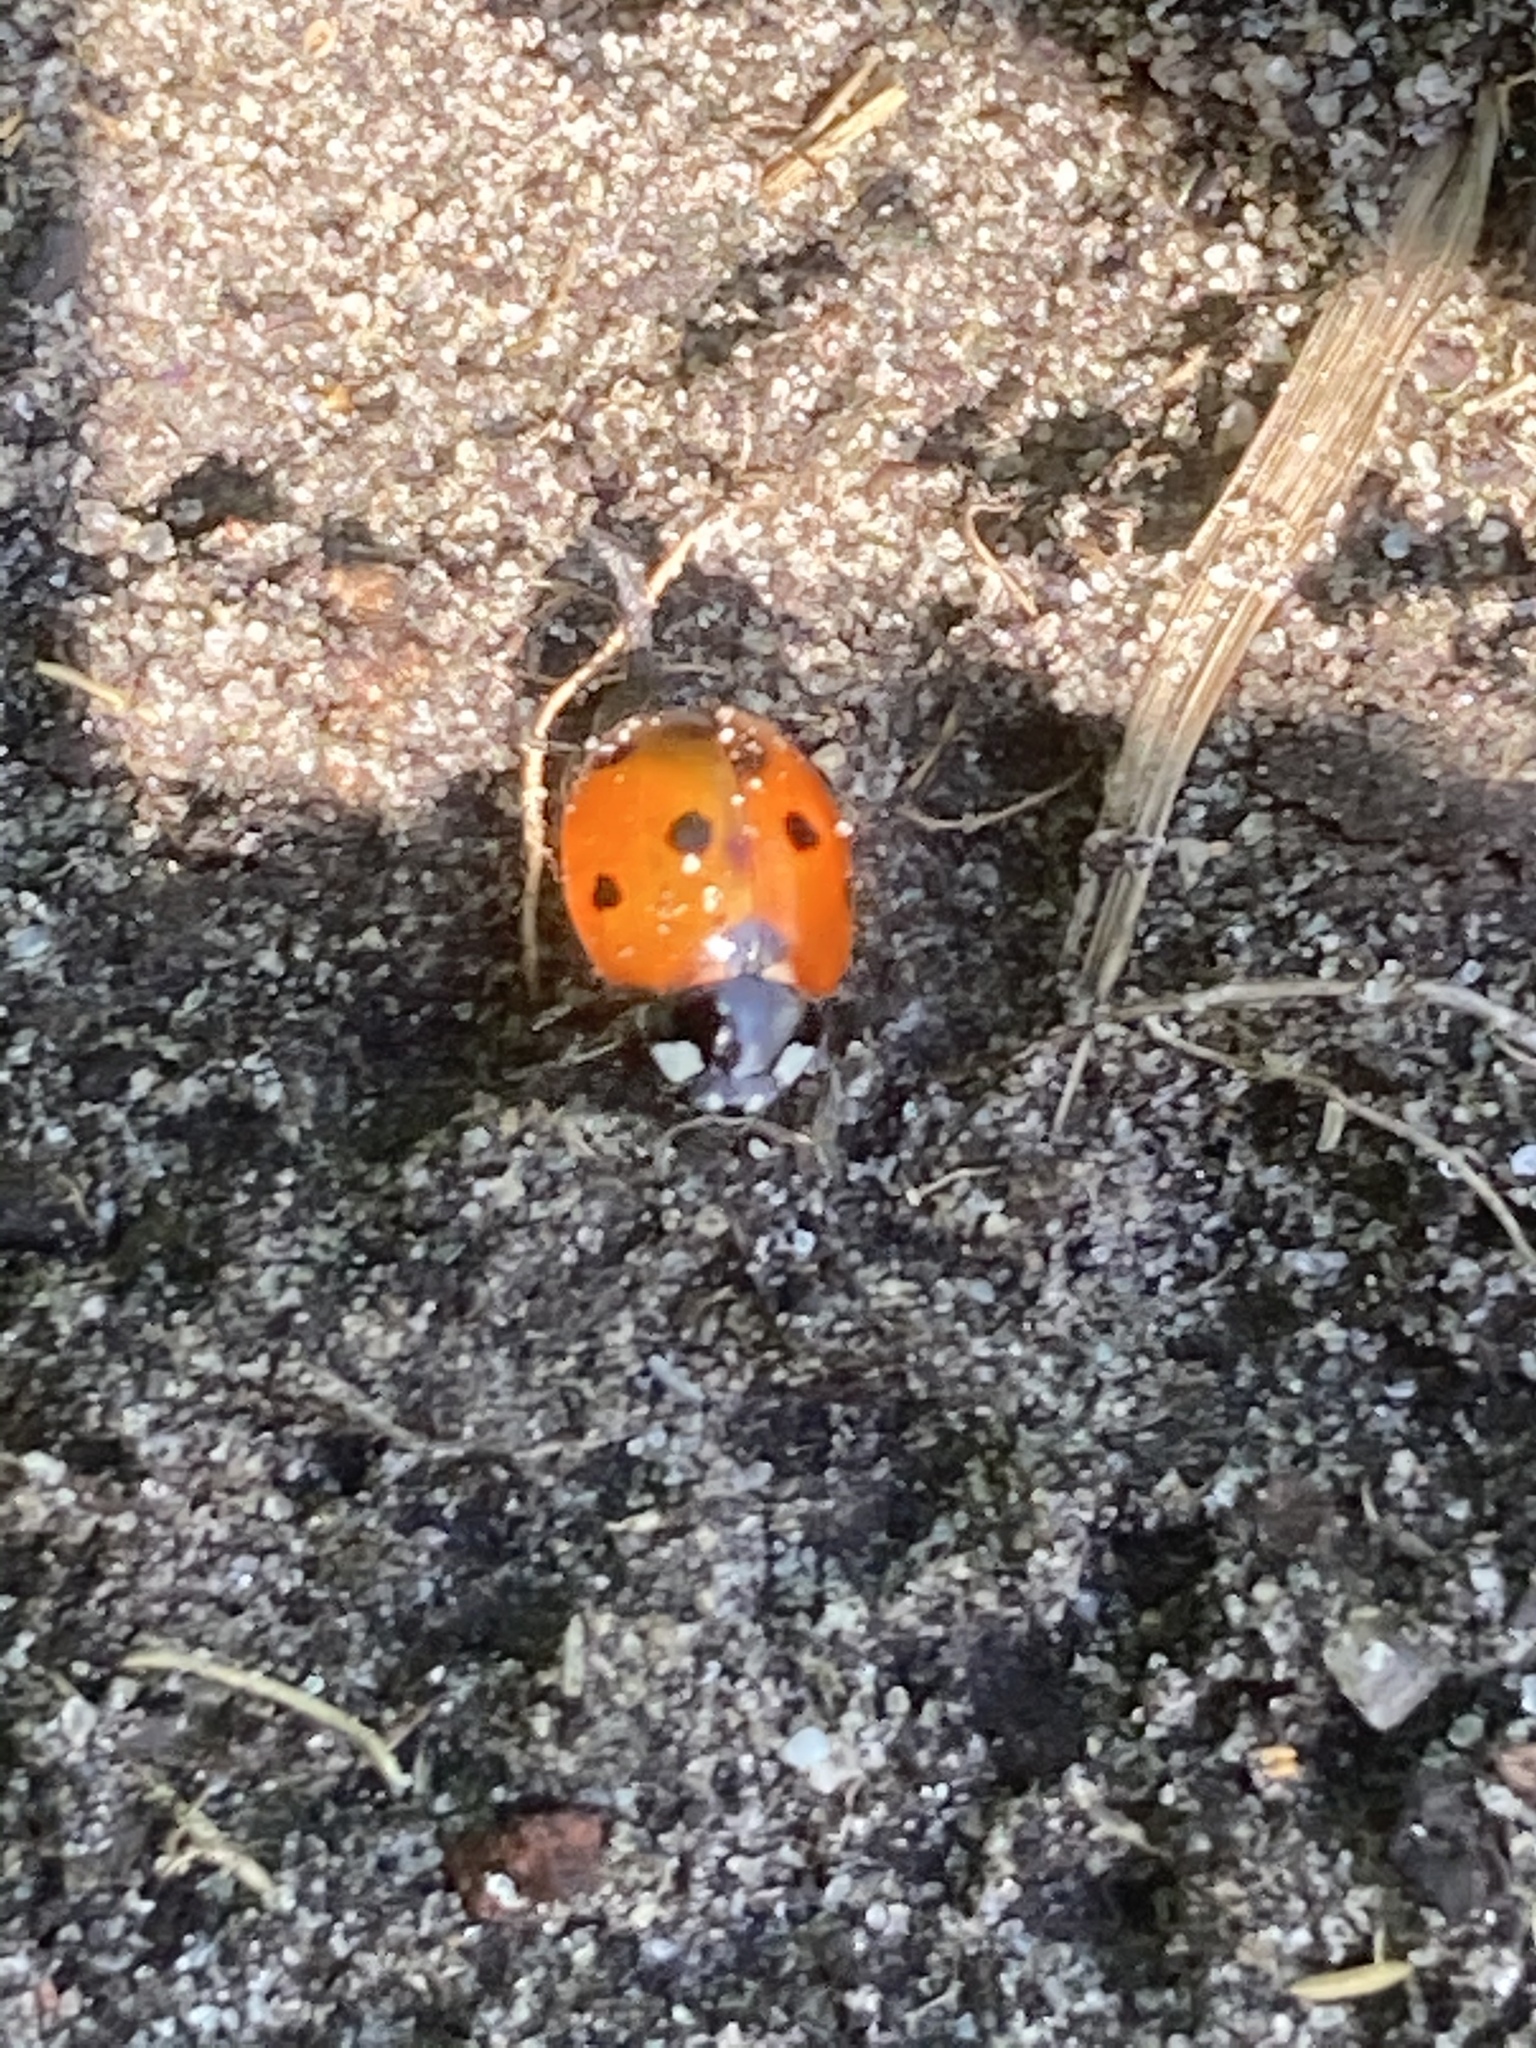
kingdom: Animalia
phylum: Arthropoda
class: Insecta
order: Coleoptera
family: Coccinellidae
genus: Coccinella
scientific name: Coccinella septempunctata
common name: Sevenspotted lady beetle
